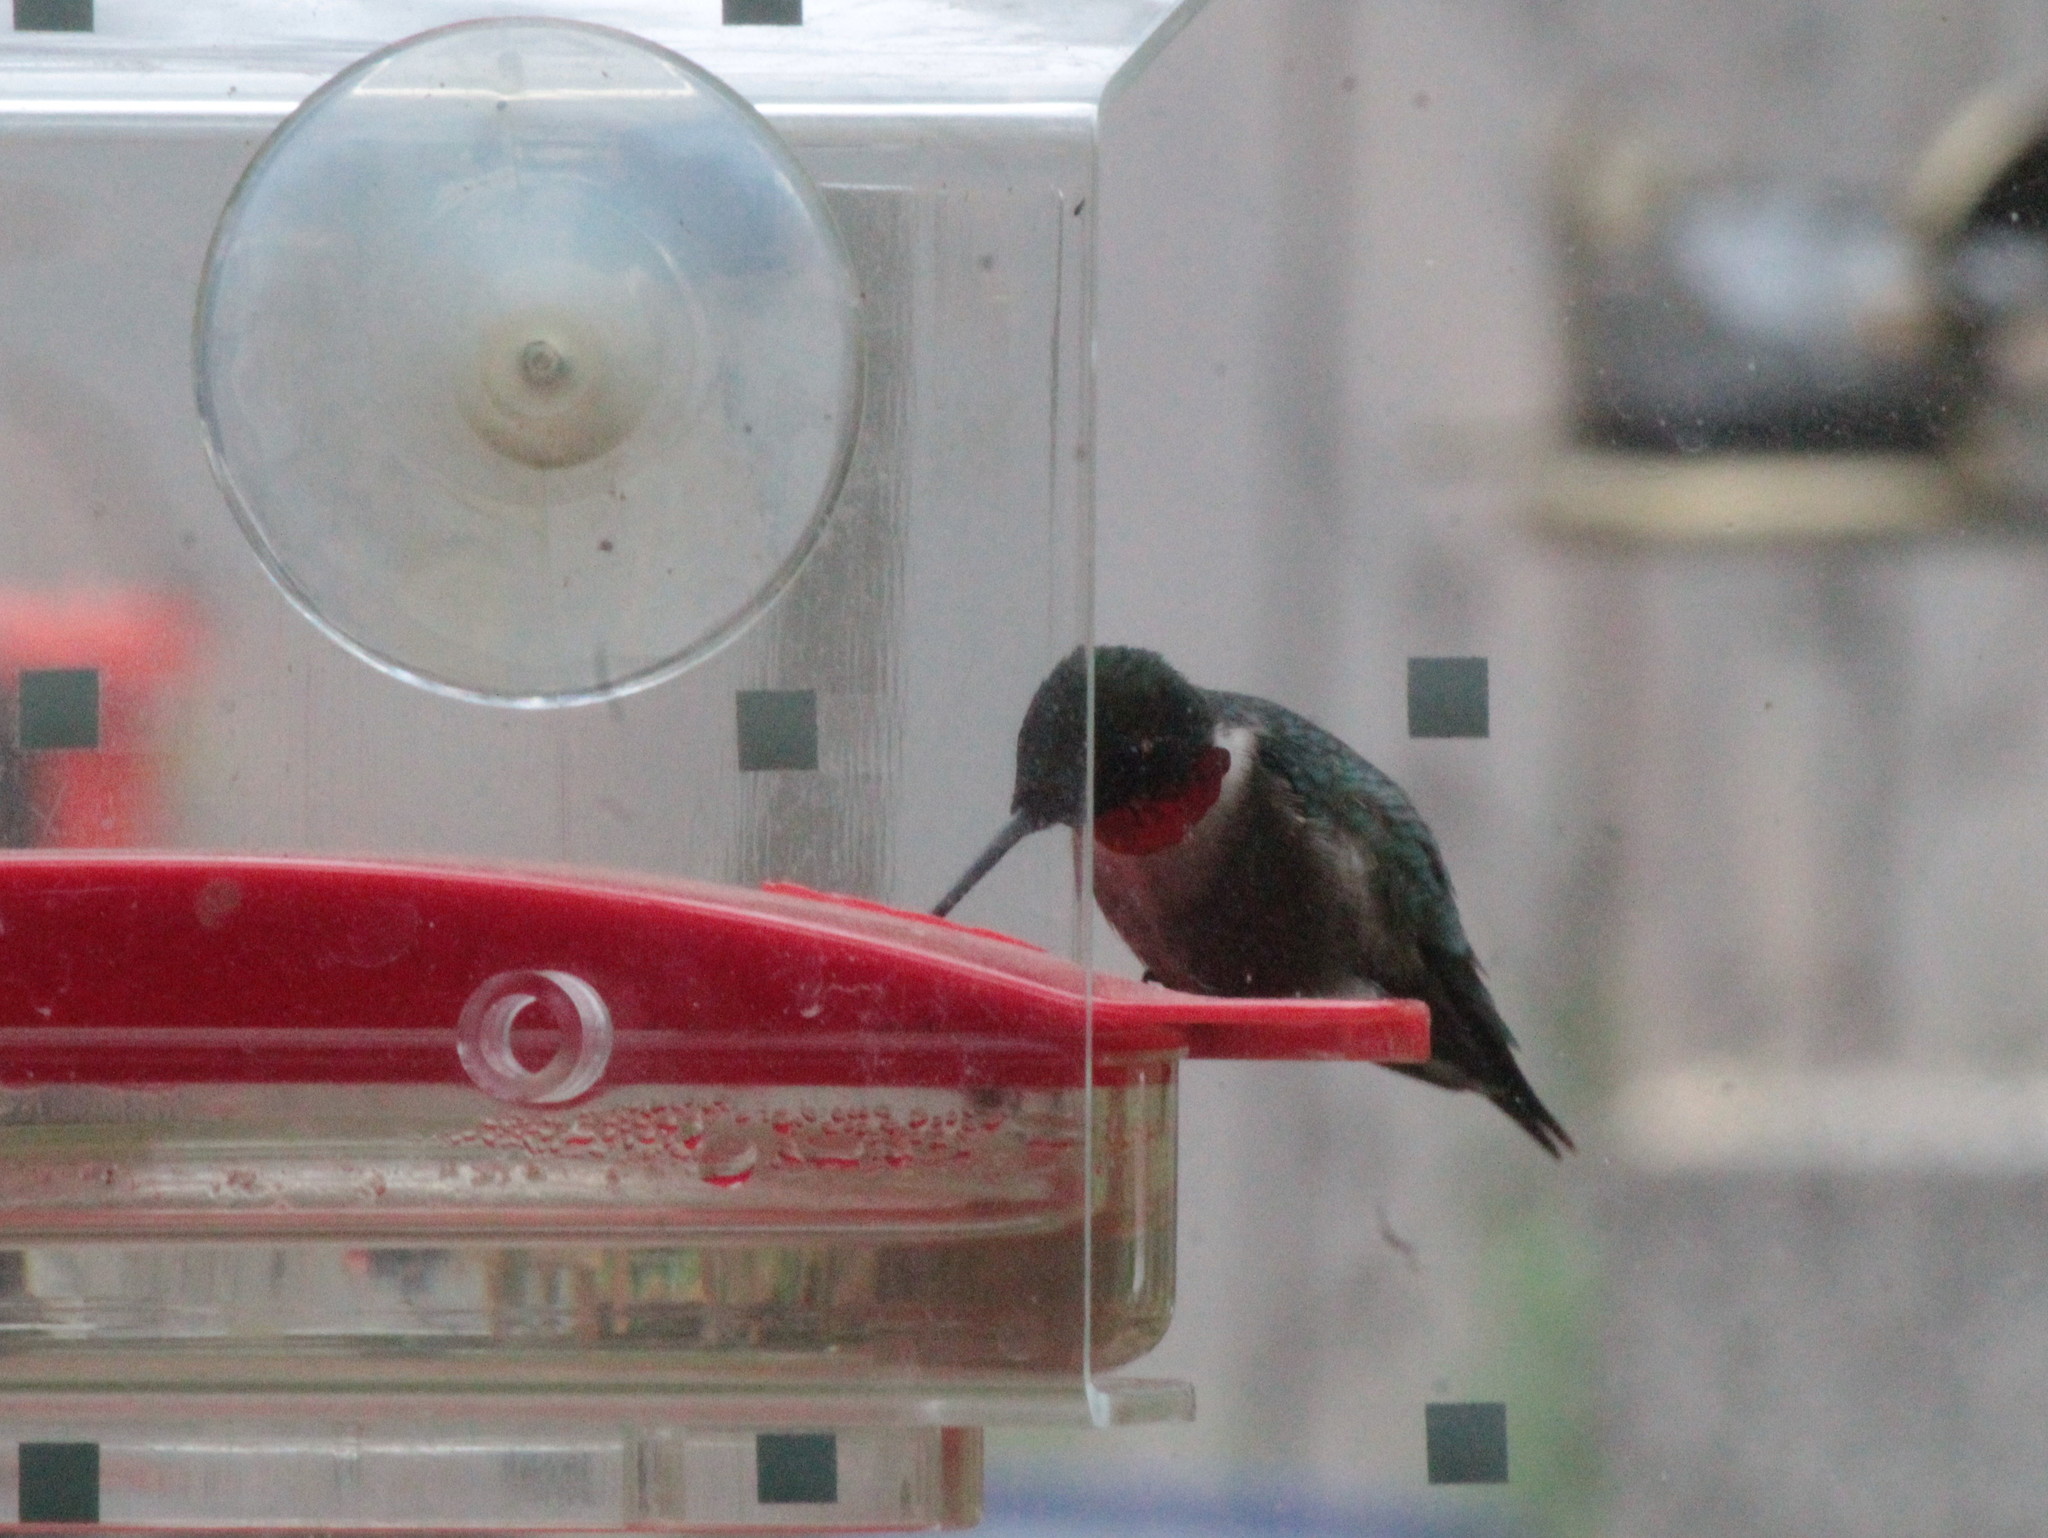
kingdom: Animalia
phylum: Chordata
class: Aves
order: Apodiformes
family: Trochilidae
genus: Archilochus
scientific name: Archilochus colubris
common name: Ruby-throated hummingbird
